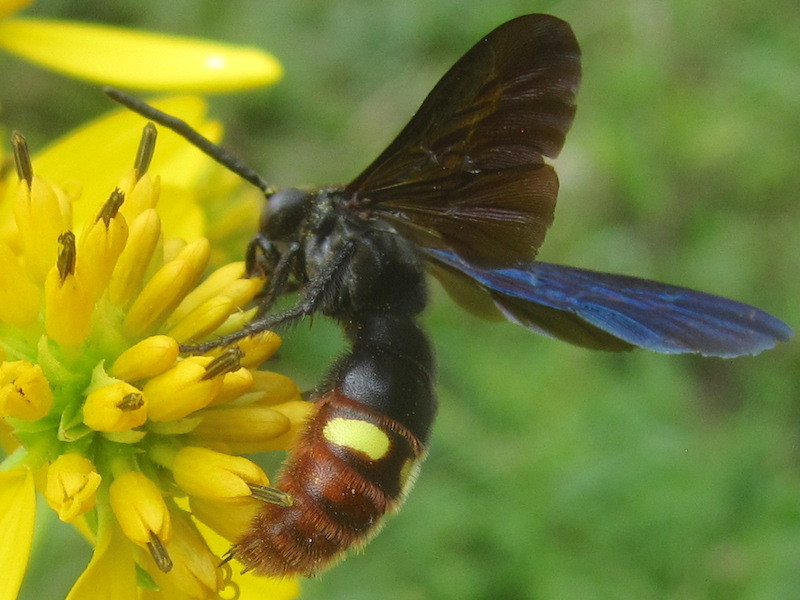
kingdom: Animalia
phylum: Arthropoda
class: Insecta
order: Hymenoptera
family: Scoliidae
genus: Scolia
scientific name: Scolia dubia
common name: Blue-winged scoliid wasp
